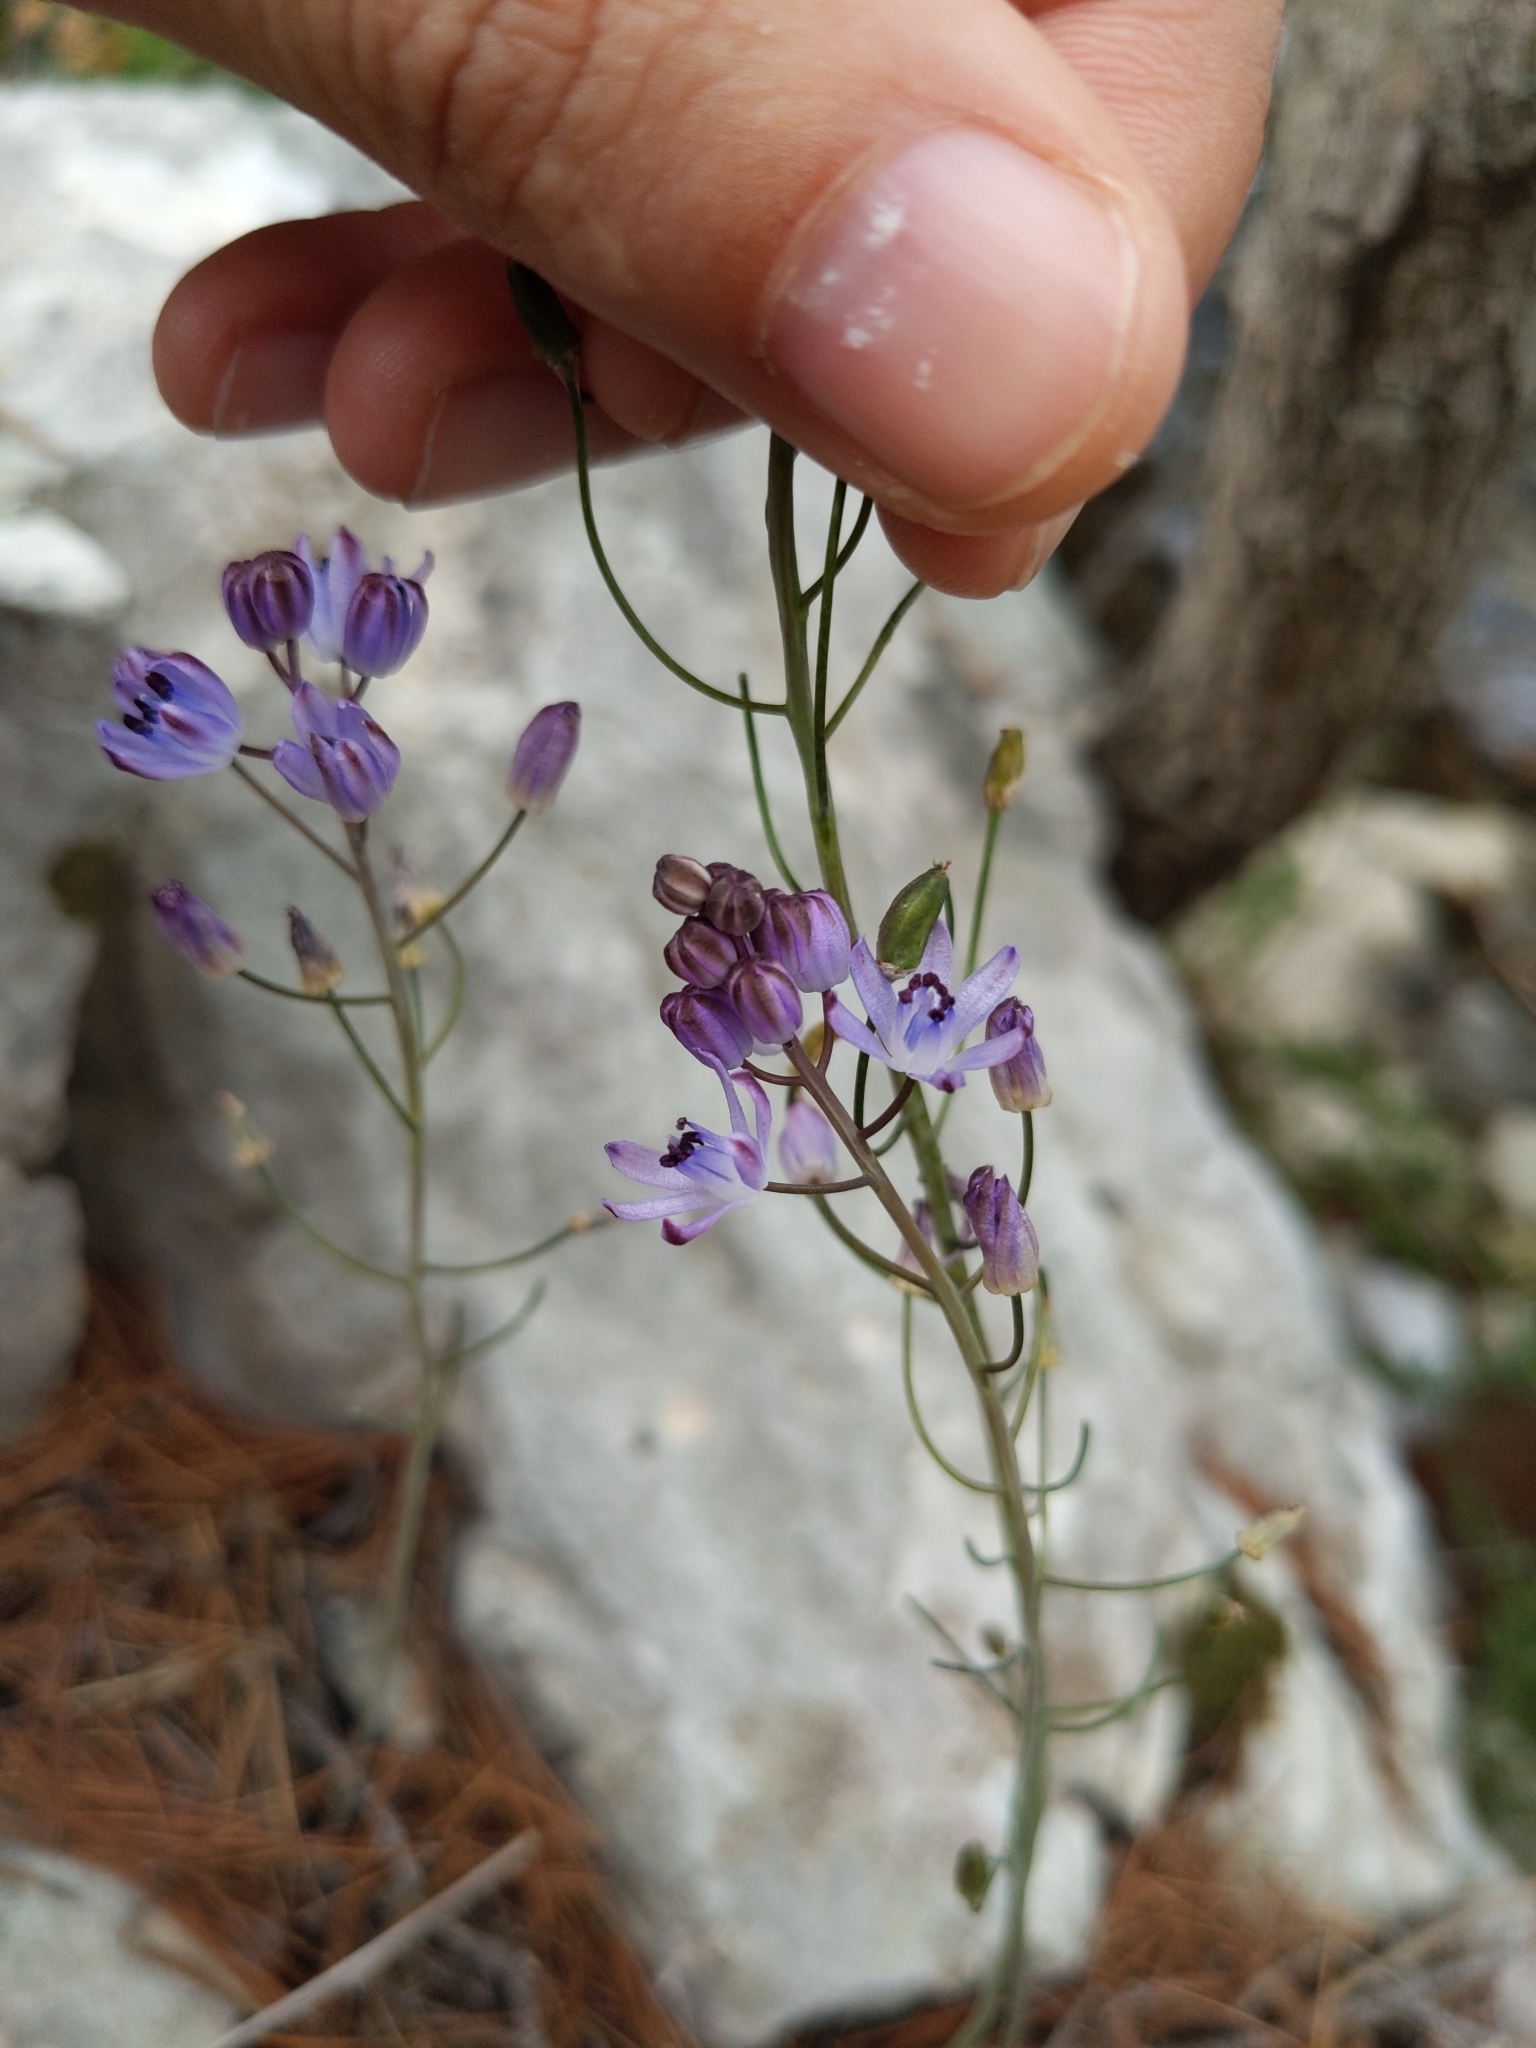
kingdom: Plantae
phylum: Tracheophyta
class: Liliopsida
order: Asparagales
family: Asparagaceae
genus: Prospero
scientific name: Prospero autumnale
